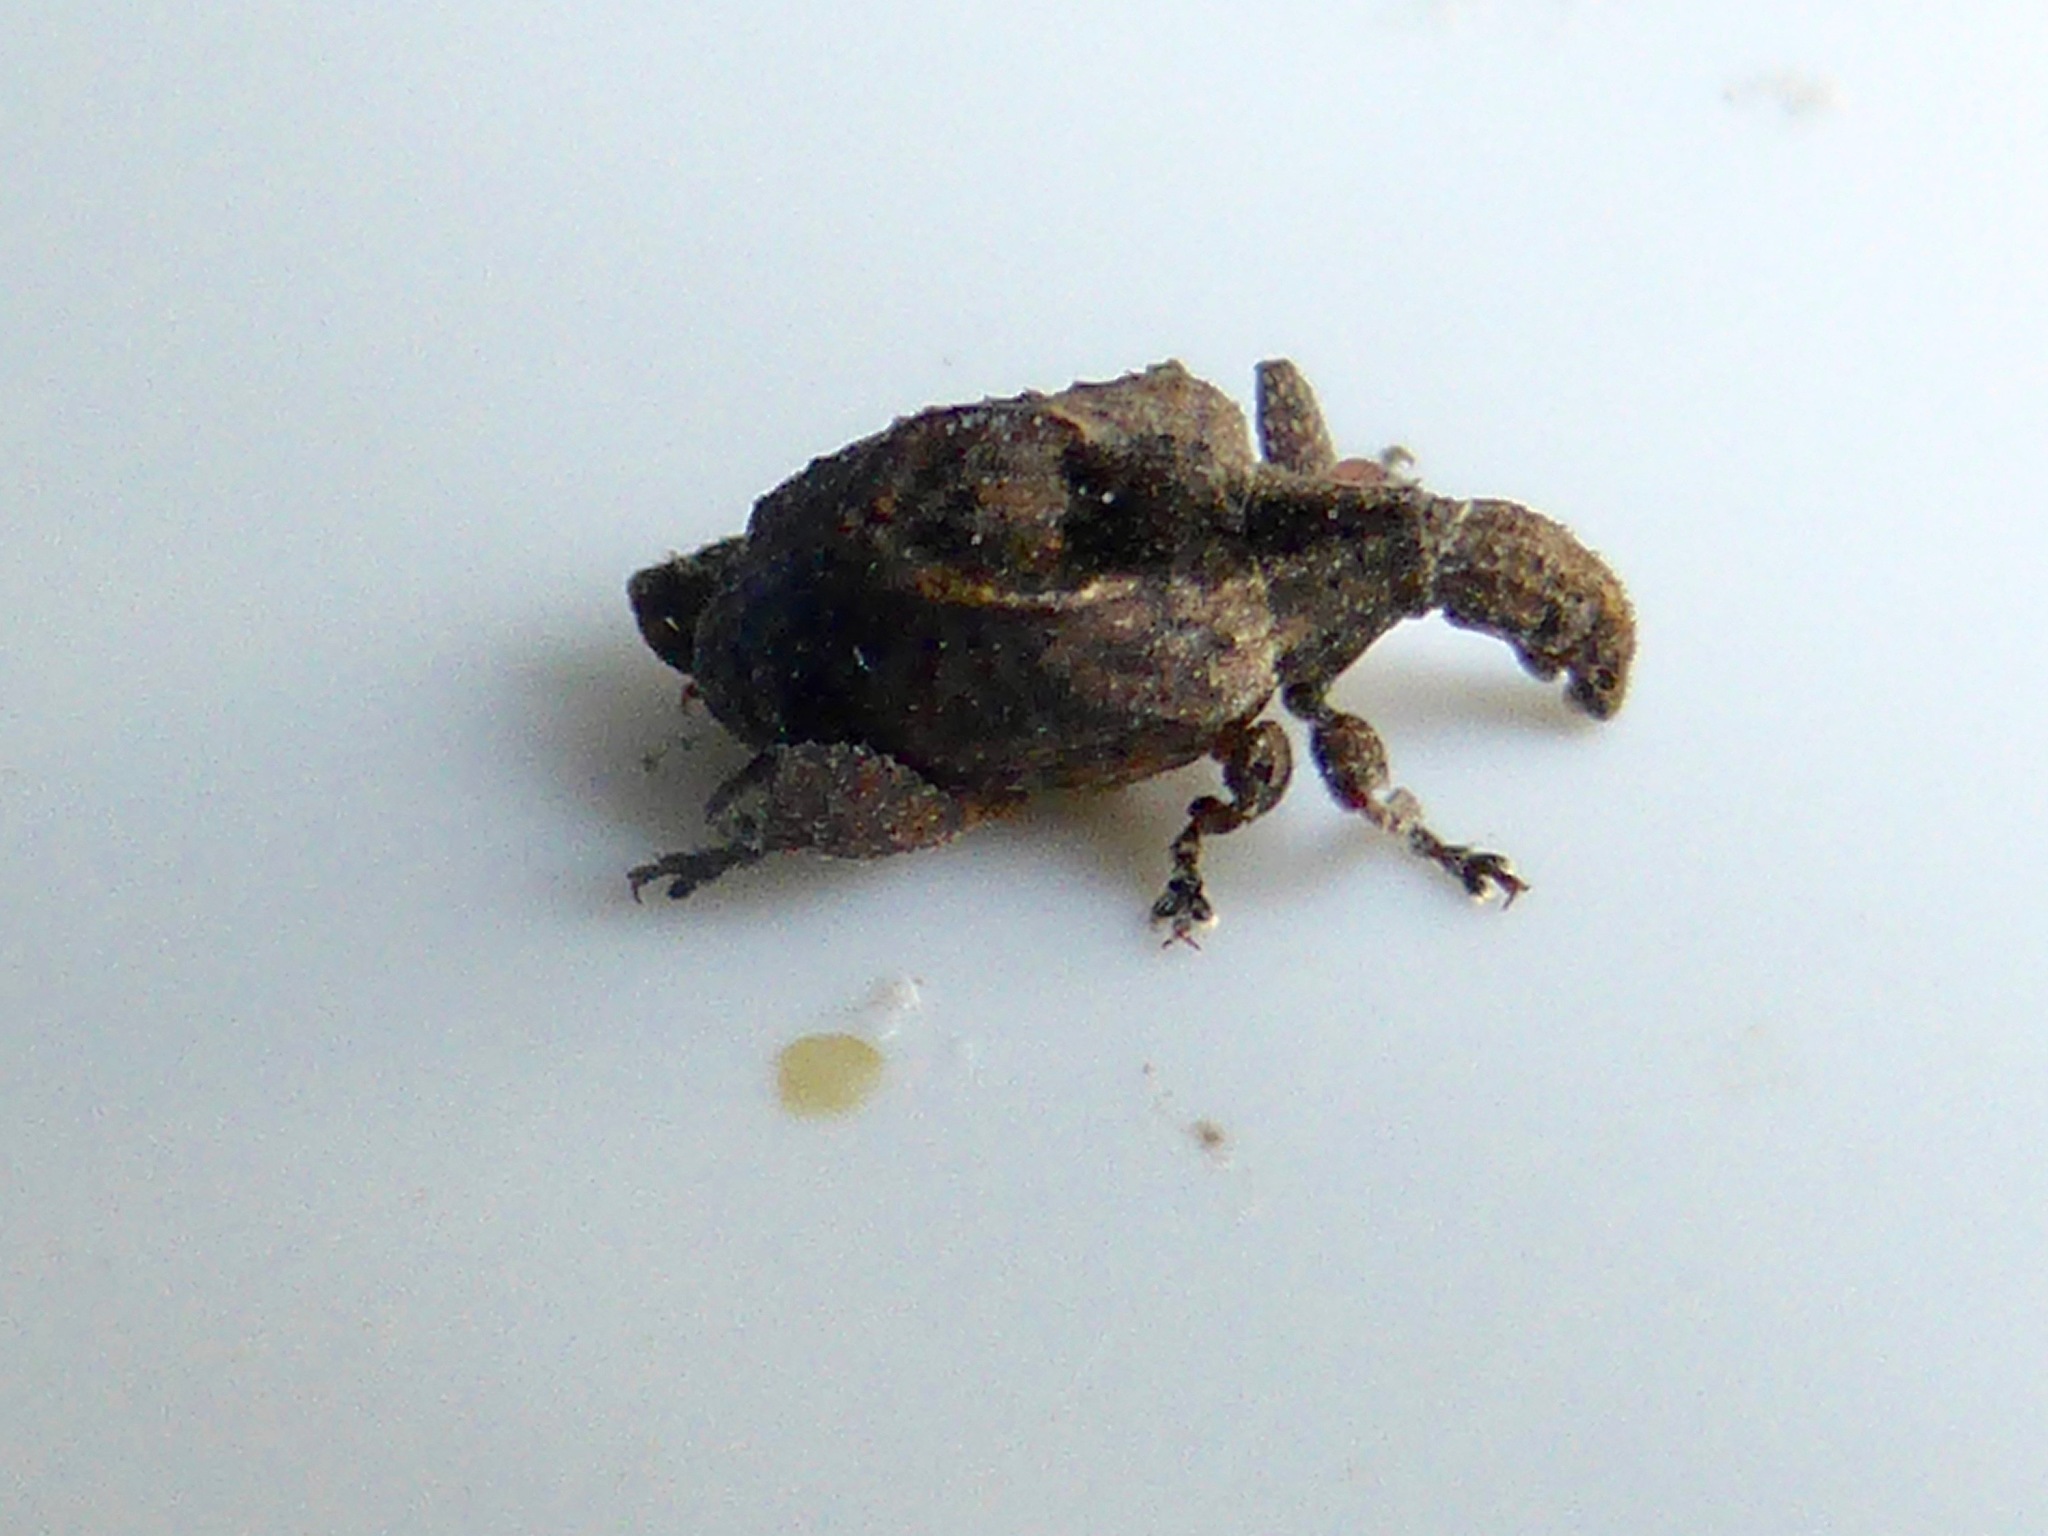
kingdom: Animalia
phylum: Arthropoda
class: Insecta
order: Coleoptera
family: Curculionidae
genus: Stephanorrhynchus
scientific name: Stephanorrhynchus crassus
